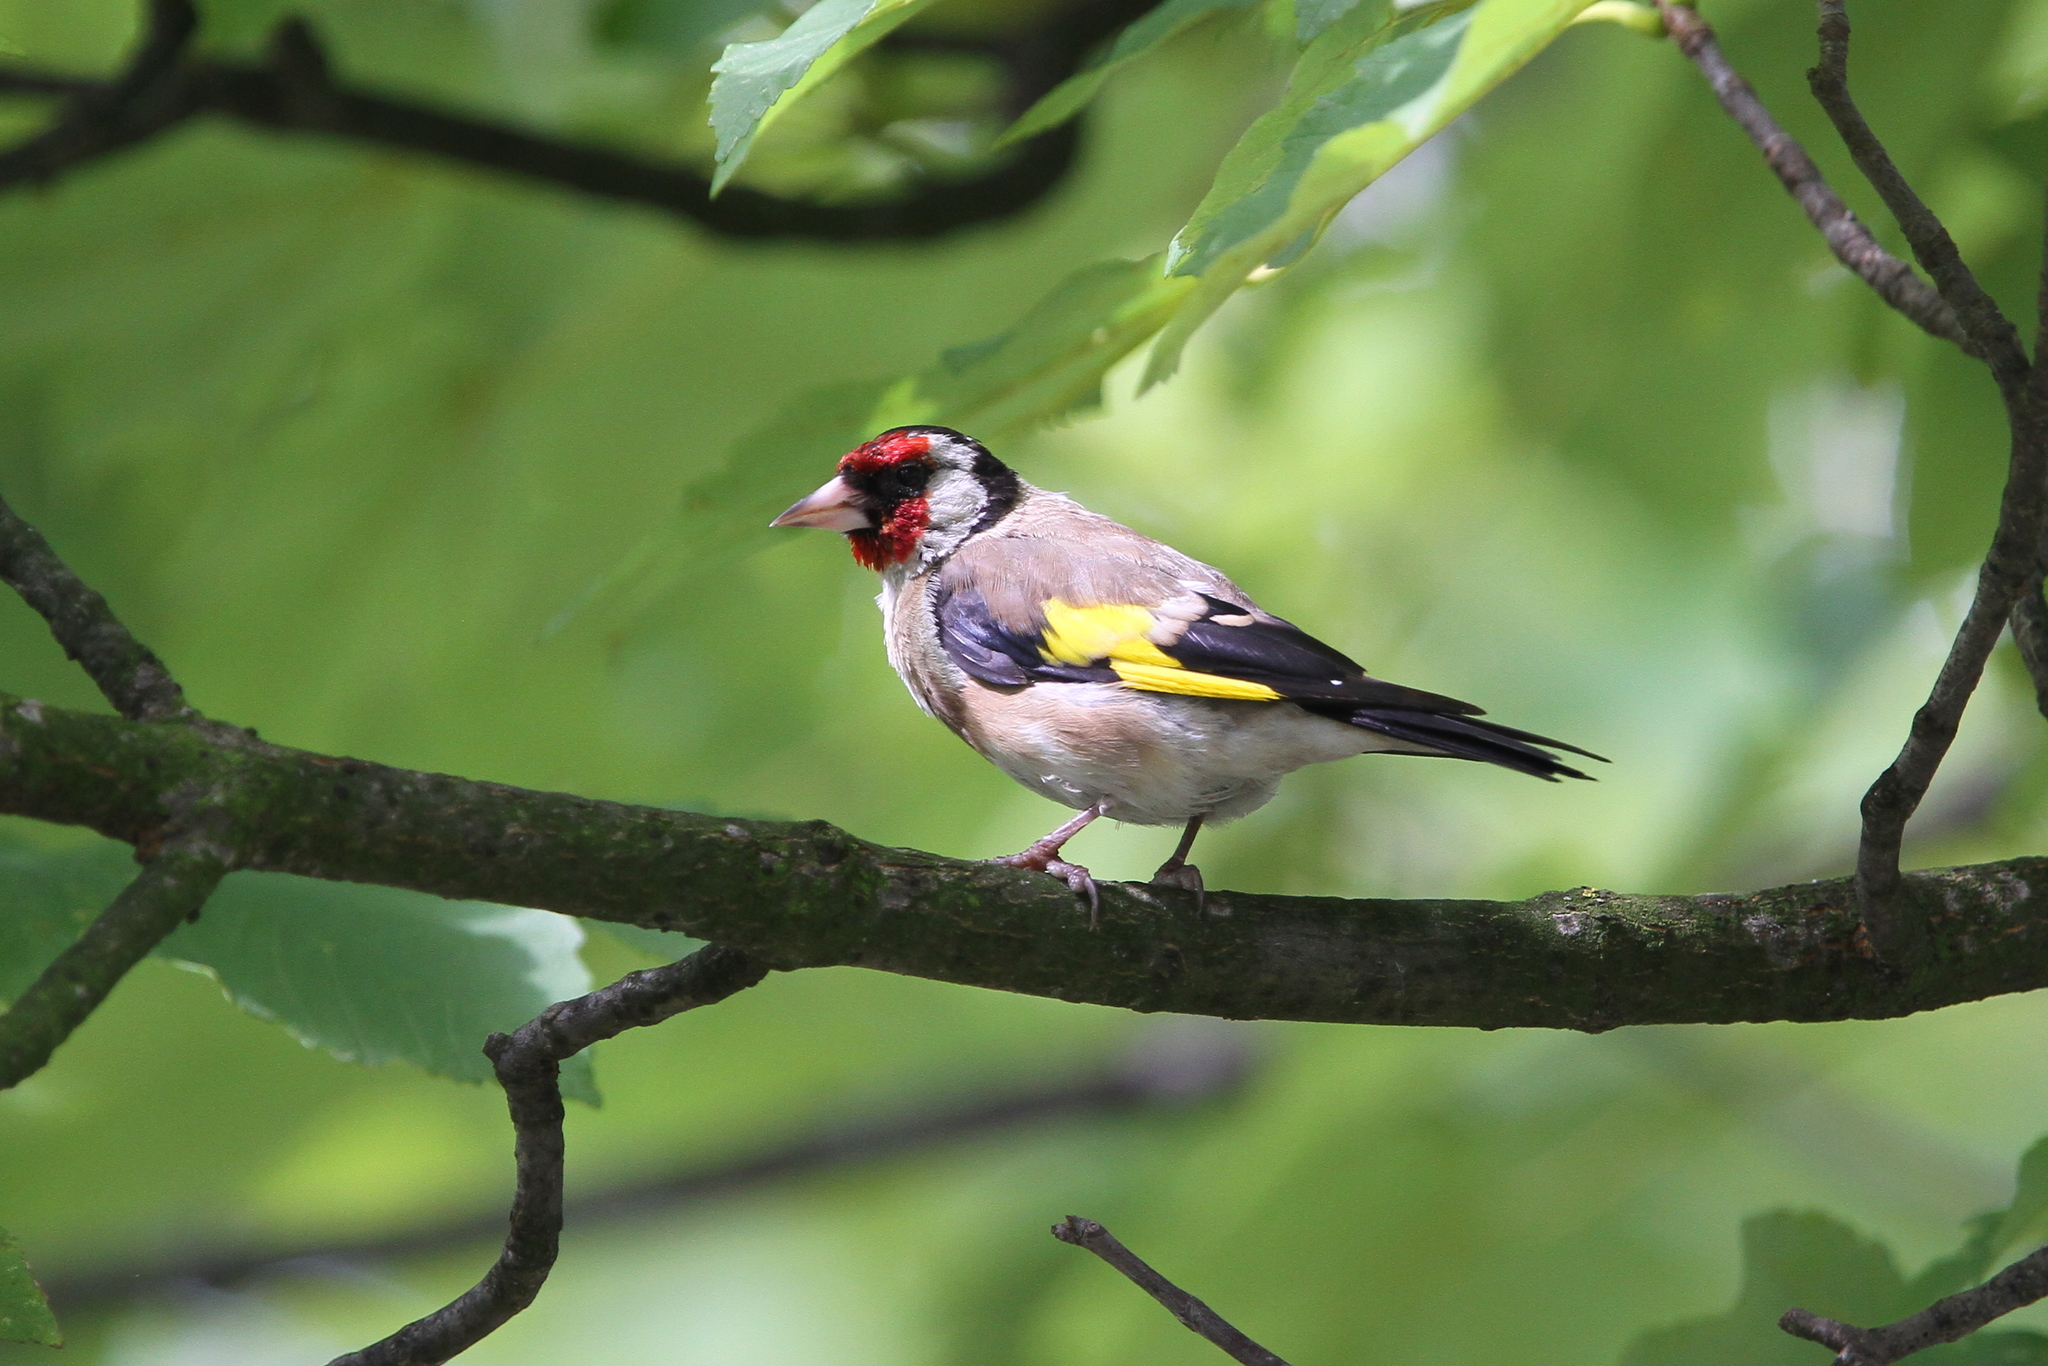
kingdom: Animalia
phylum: Chordata
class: Aves
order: Passeriformes
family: Fringillidae
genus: Carduelis
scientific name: Carduelis carduelis
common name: European goldfinch
